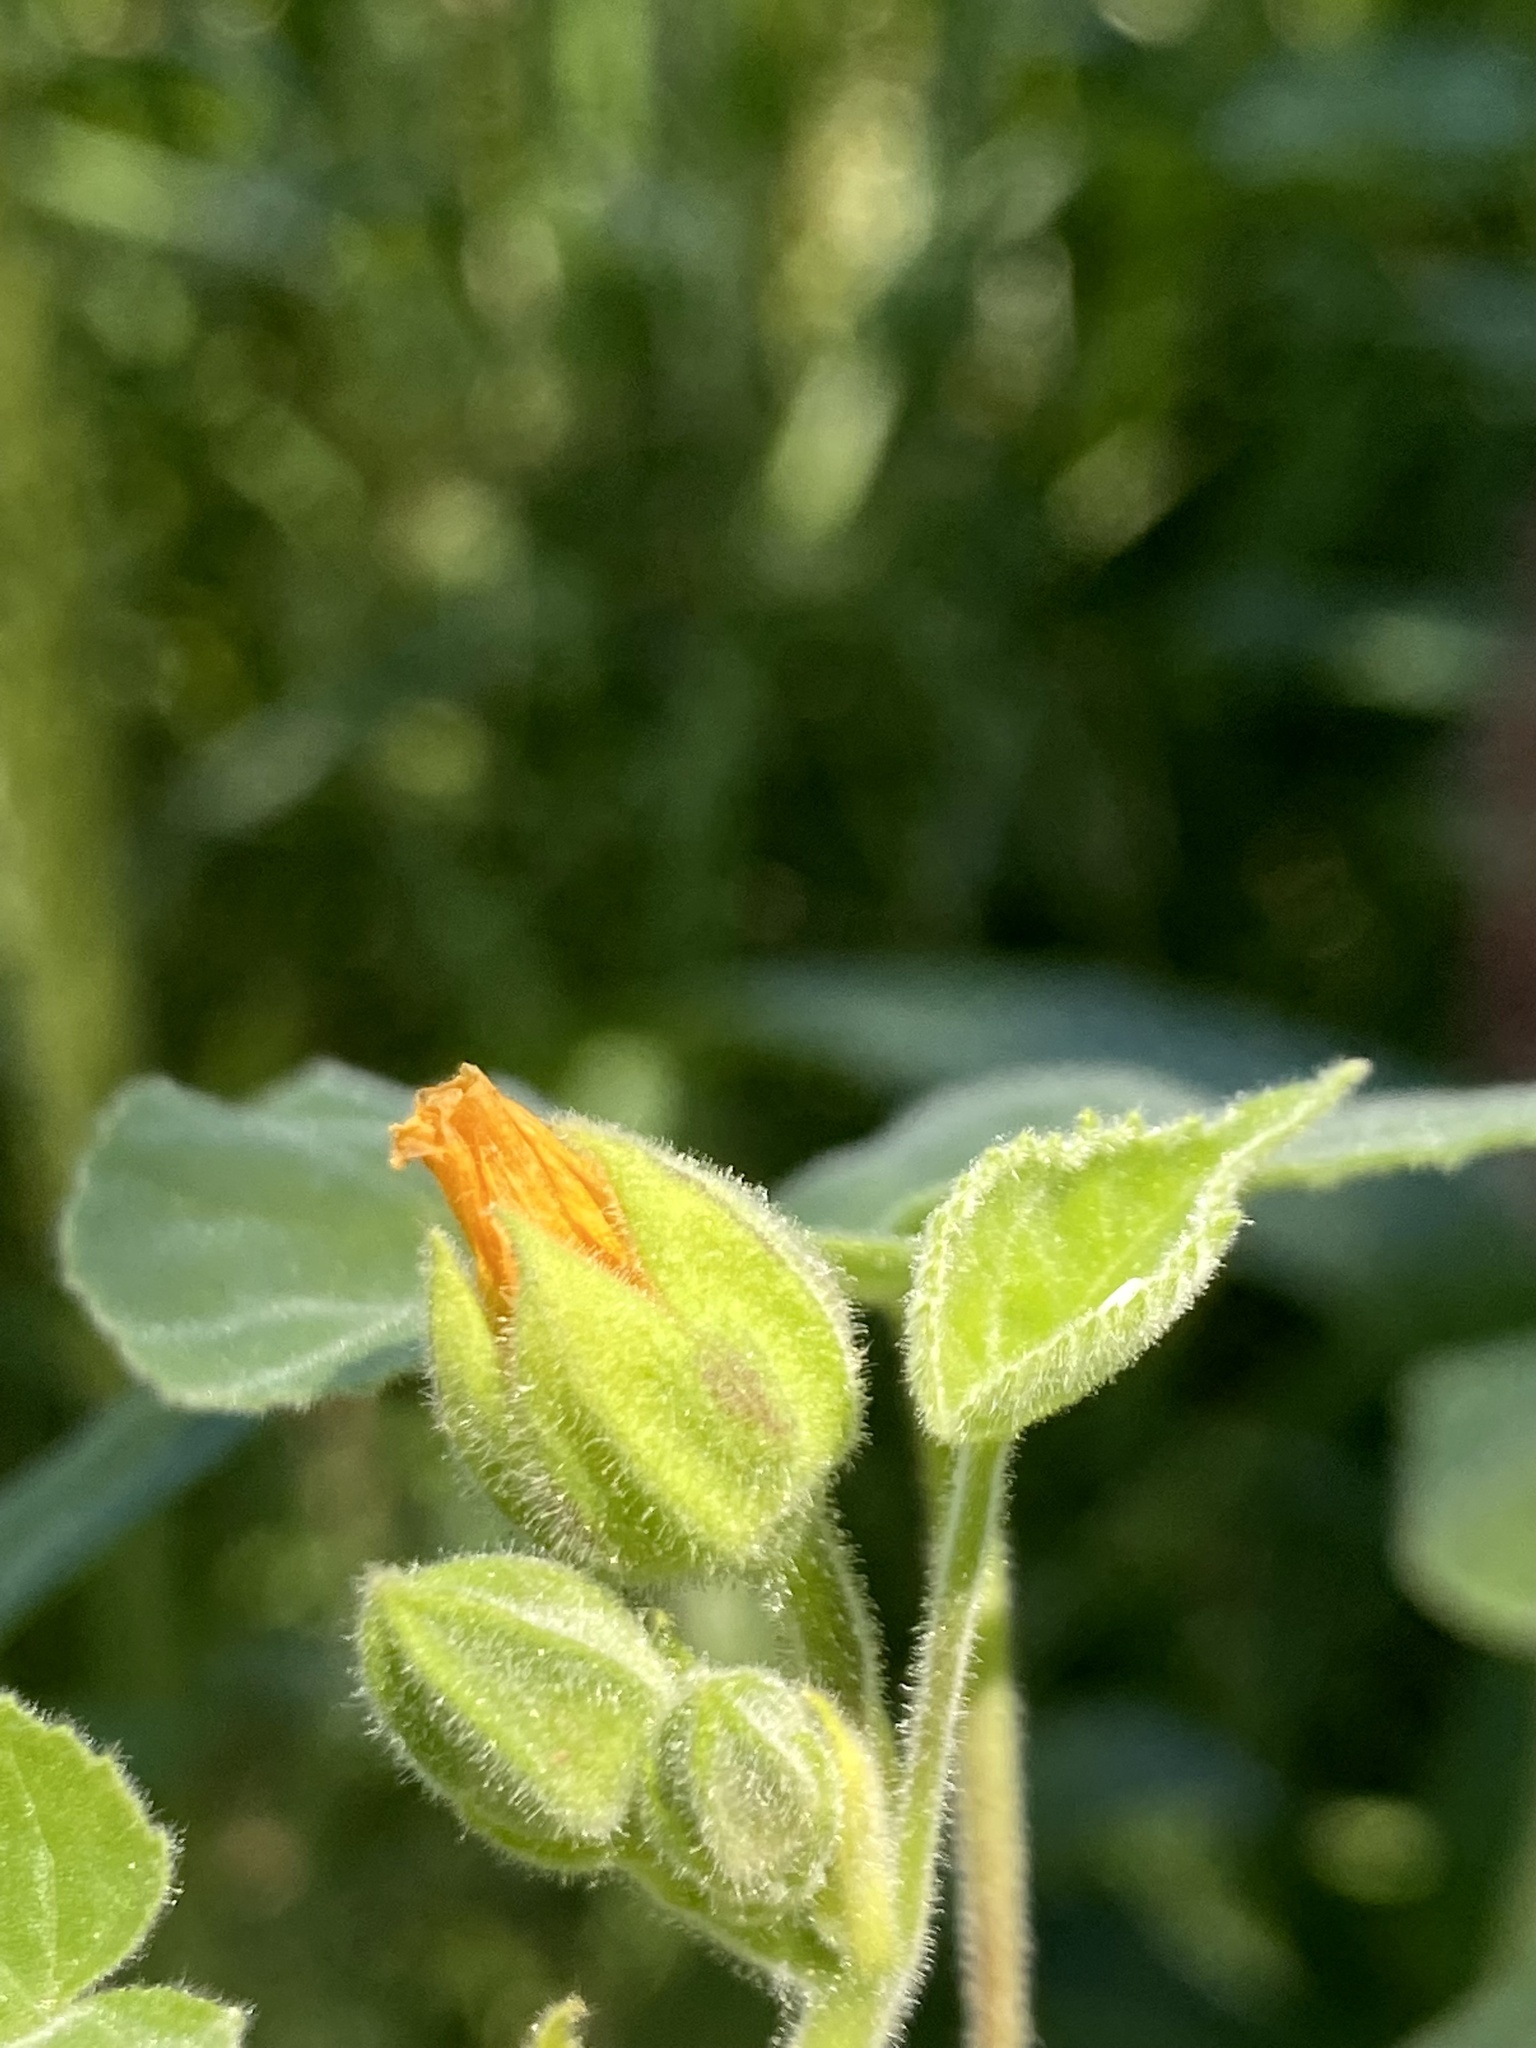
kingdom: Plantae
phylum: Tracheophyta
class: Magnoliopsida
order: Malvales
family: Malvaceae
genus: Abutilon
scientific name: Abutilon theophrasti
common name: Velvetleaf
